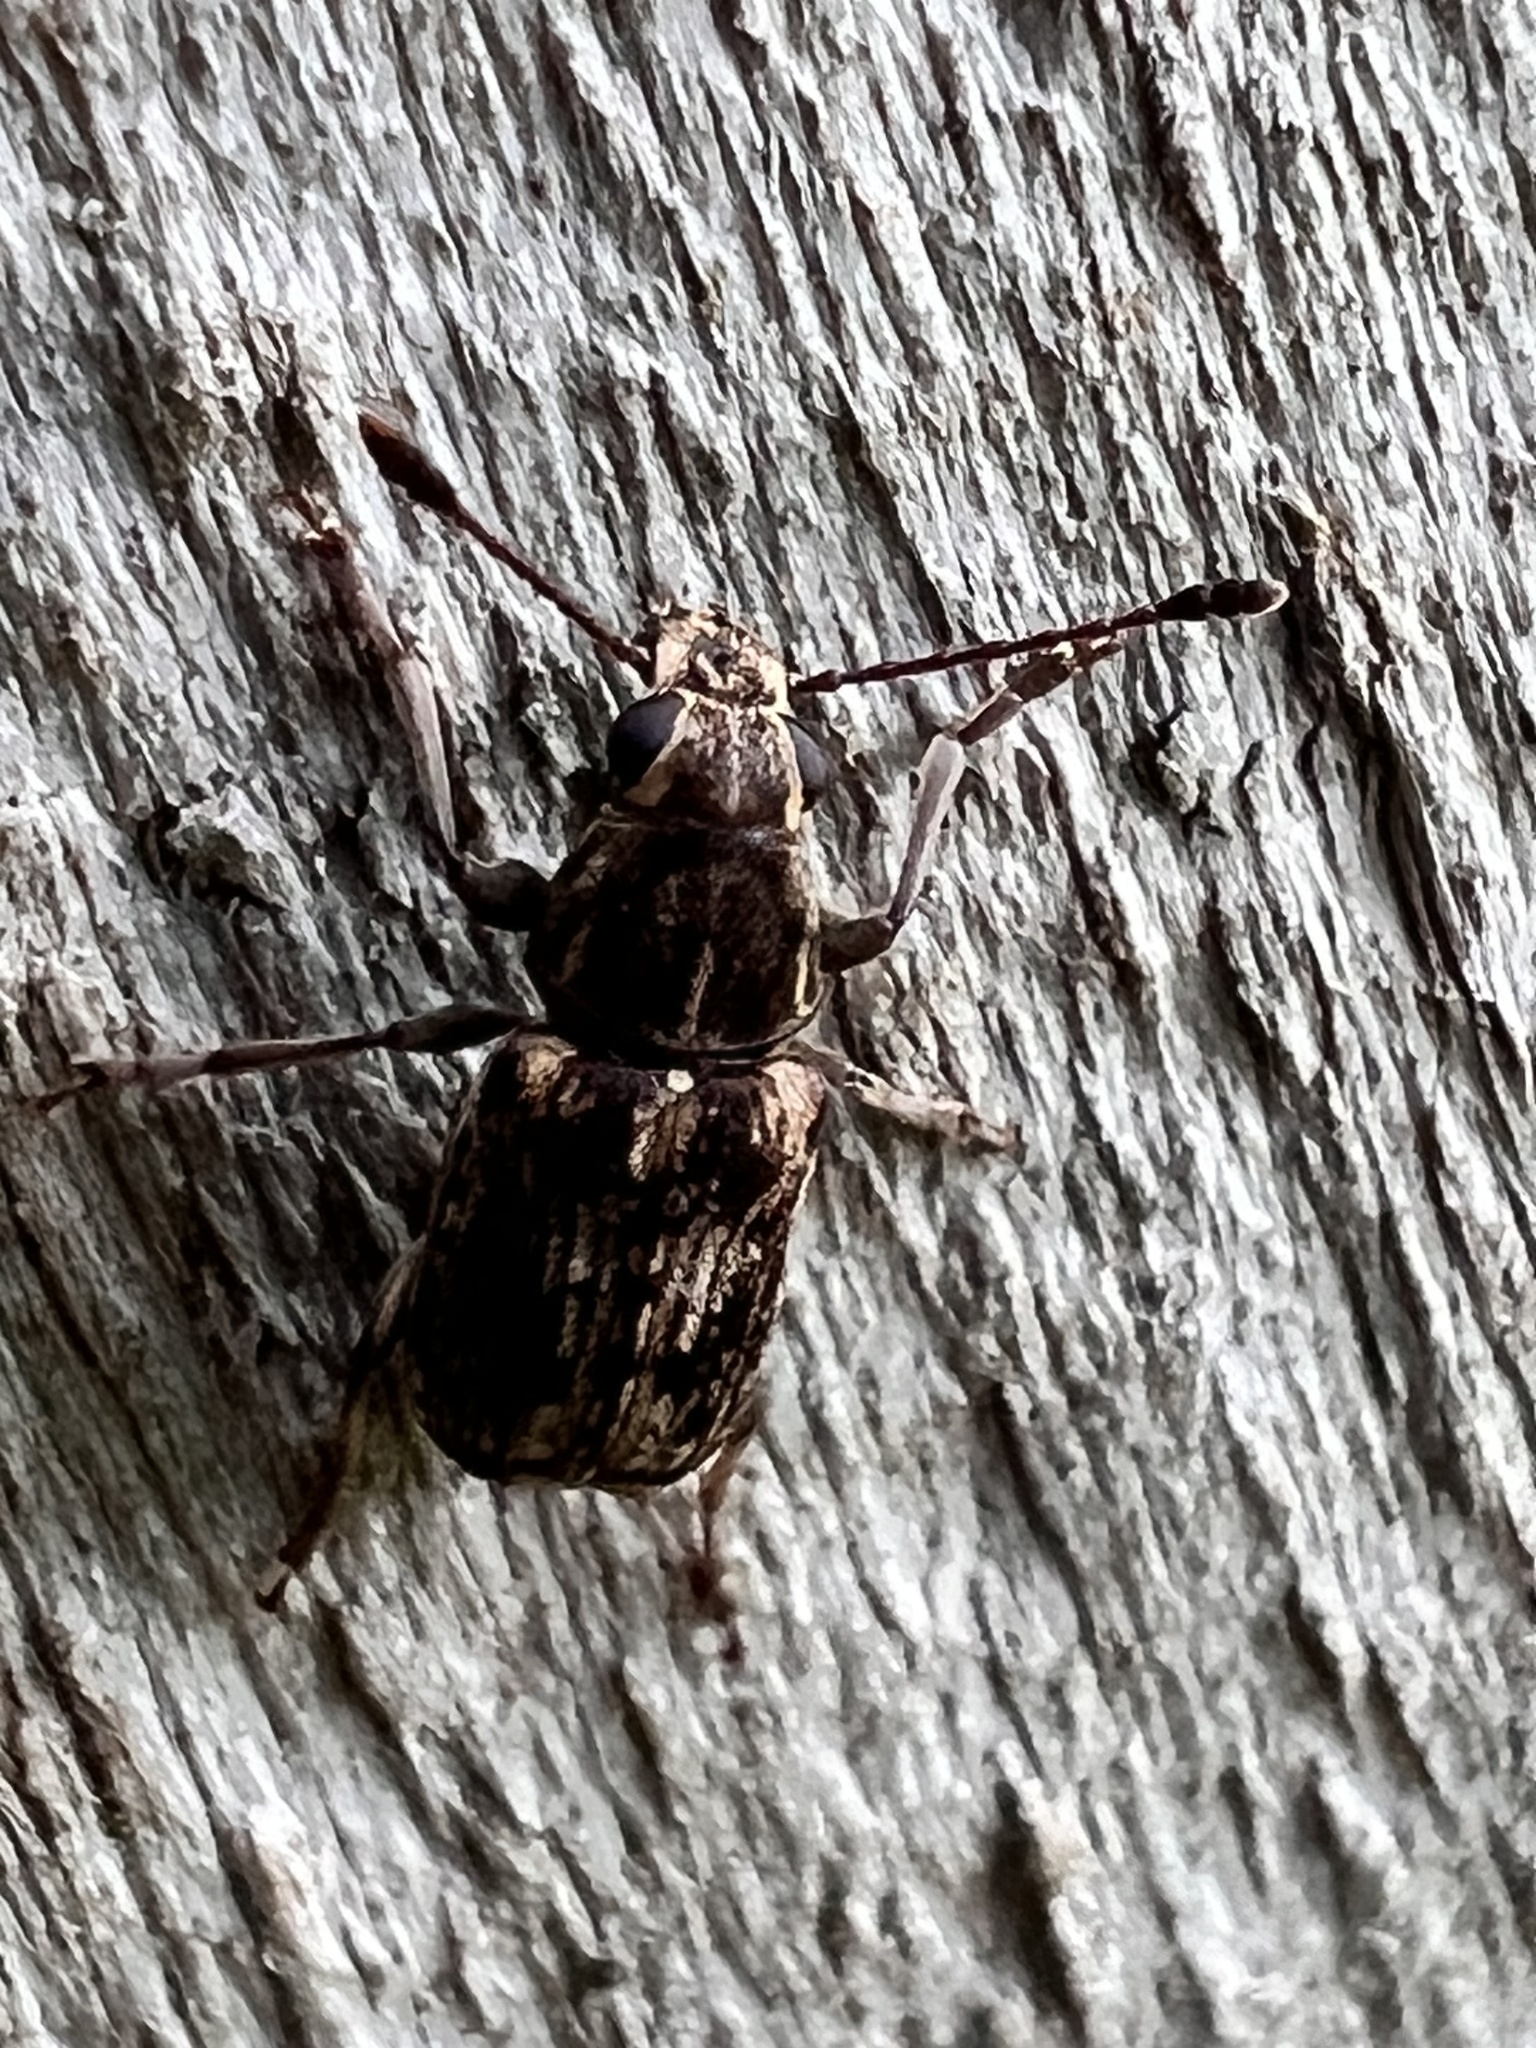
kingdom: Animalia
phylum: Arthropoda
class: Insecta
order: Coleoptera
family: Anthribidae
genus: Cacephatus
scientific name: Cacephatus huttoni
